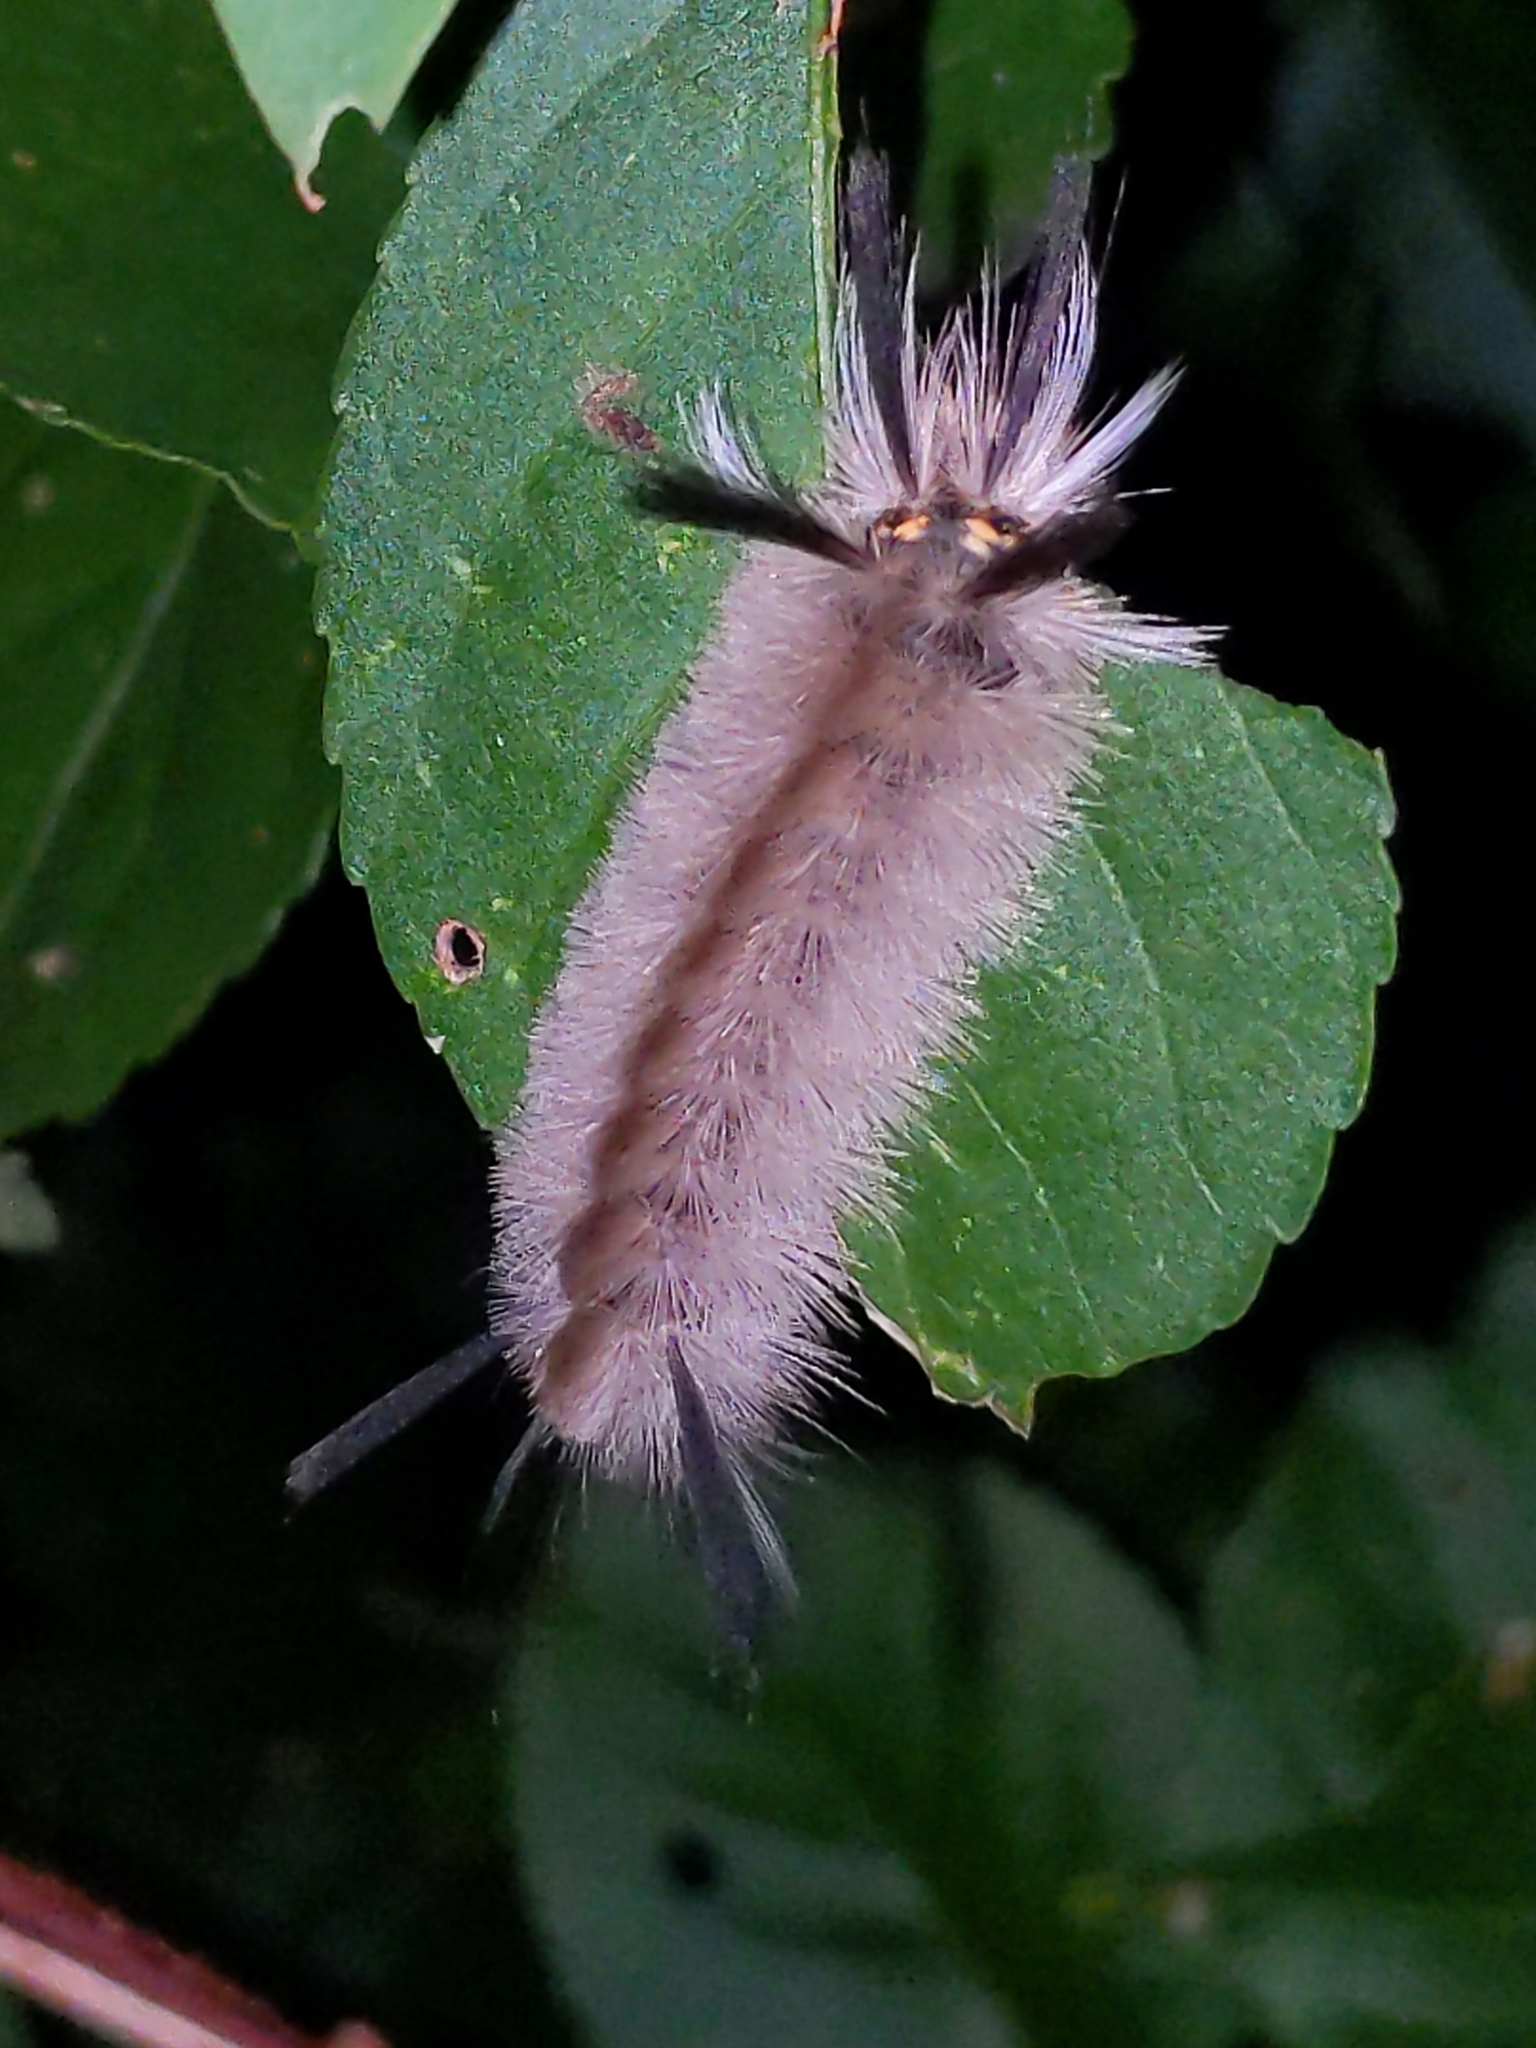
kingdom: Animalia
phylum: Arthropoda
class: Insecta
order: Lepidoptera
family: Erebidae
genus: Halysidota
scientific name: Halysidota tessellaris
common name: Banded tussock moth
